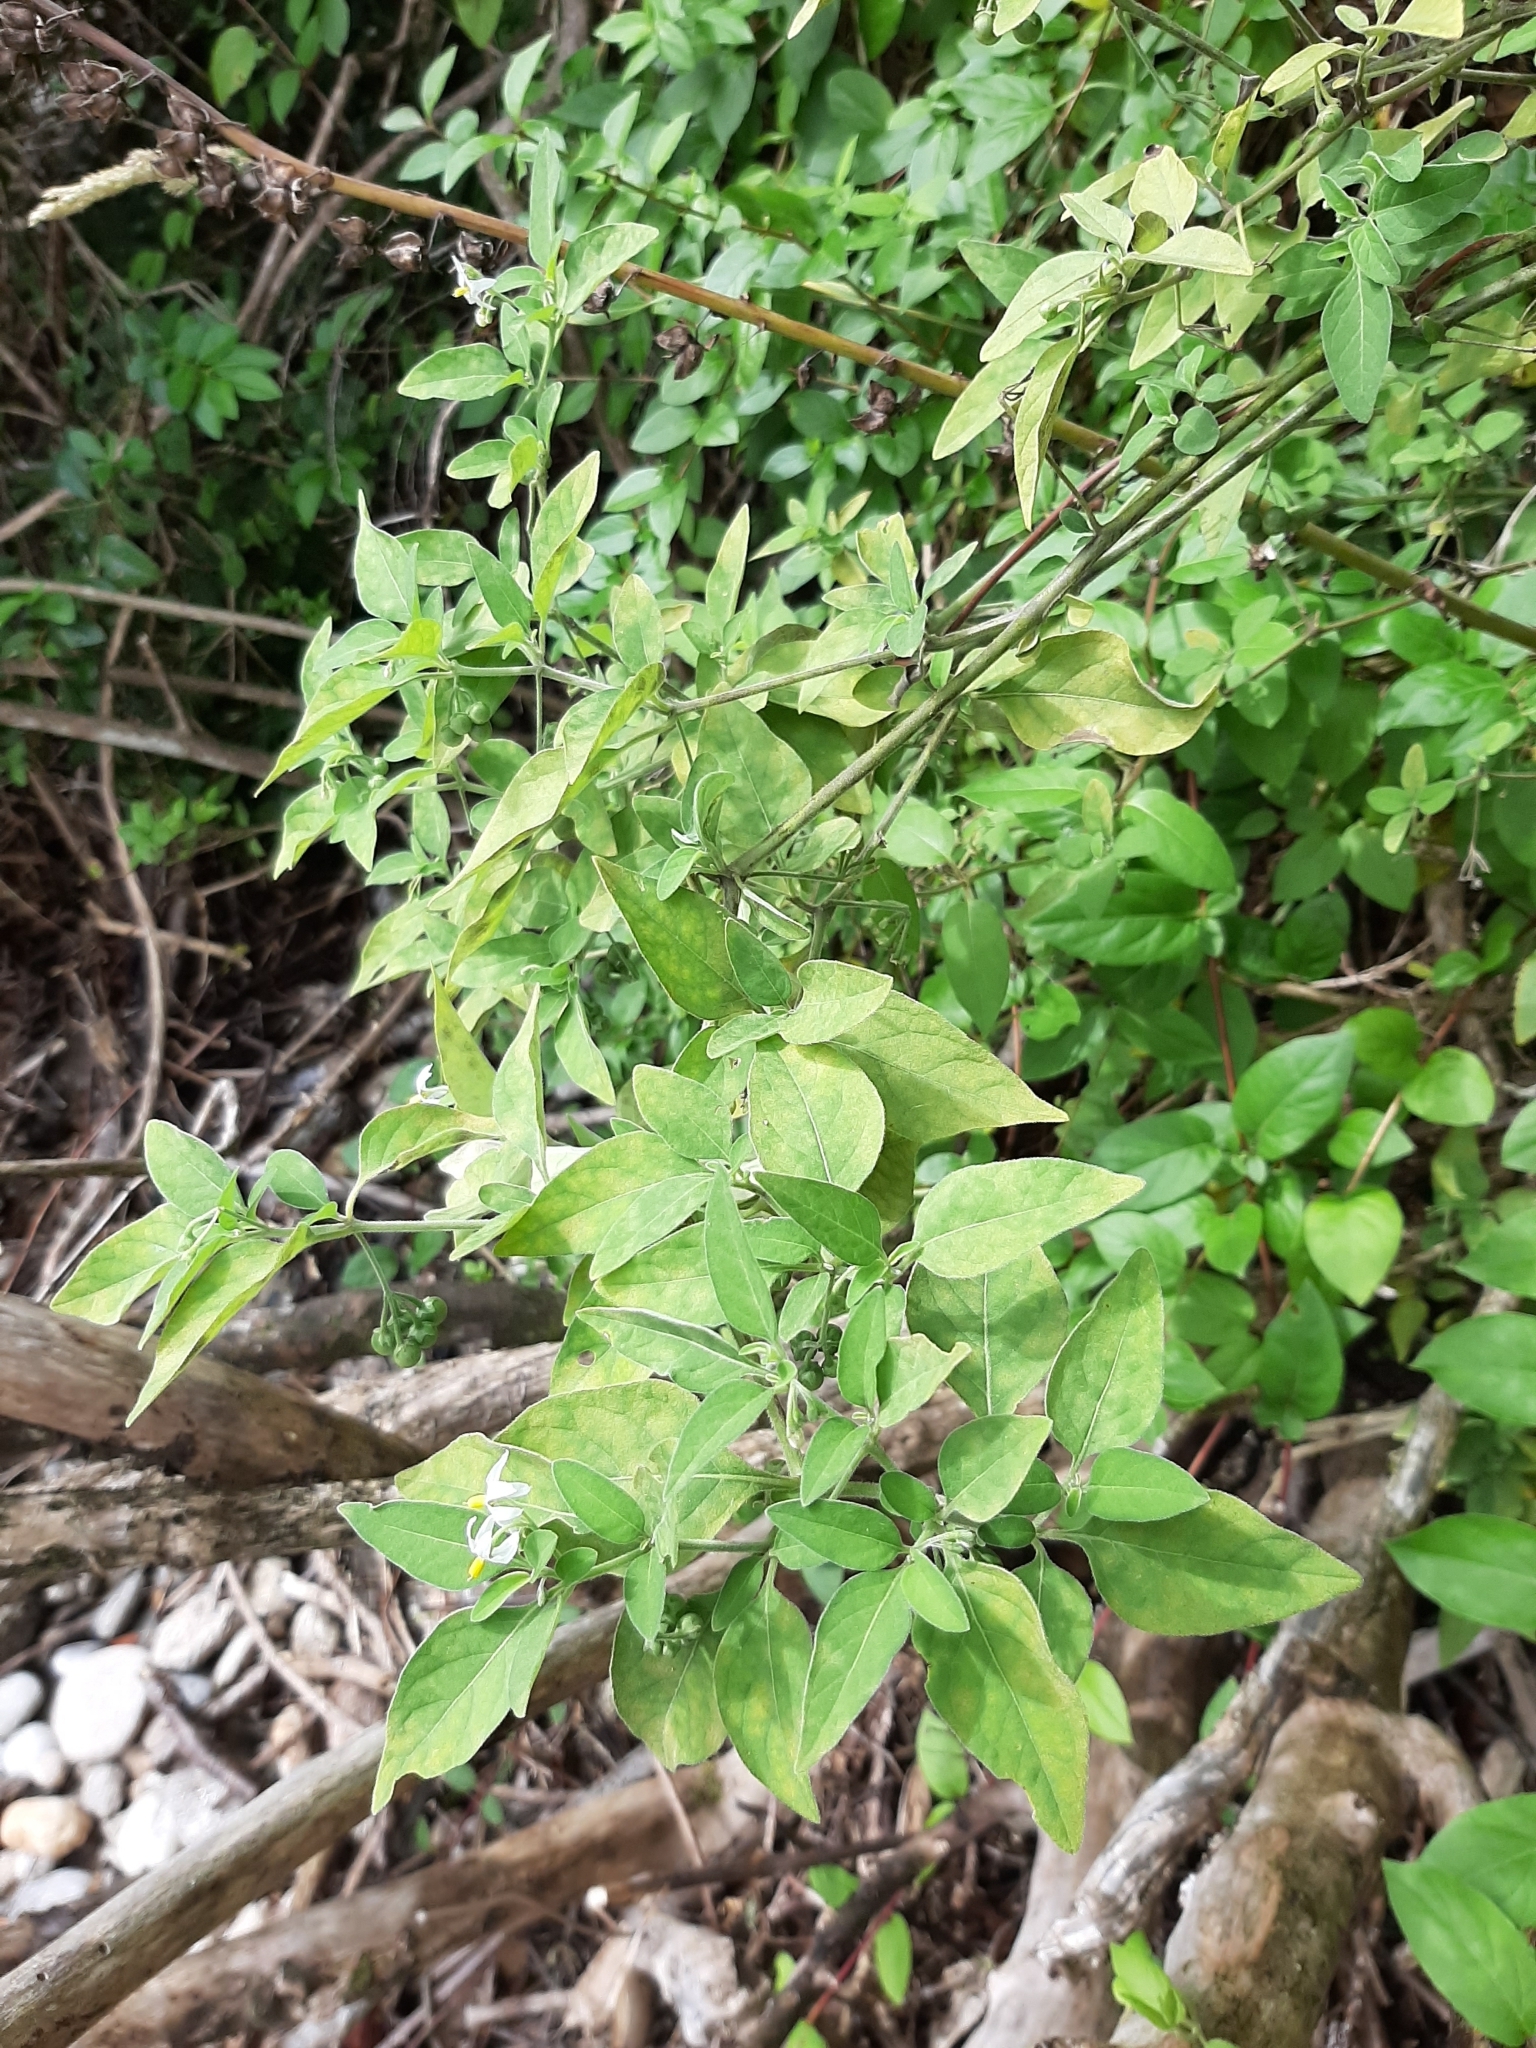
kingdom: Plantae
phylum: Tracheophyta
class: Magnoliopsida
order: Solanales
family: Solanaceae
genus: Solanum
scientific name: Solanum chenopodioides
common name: Tall nightshade
